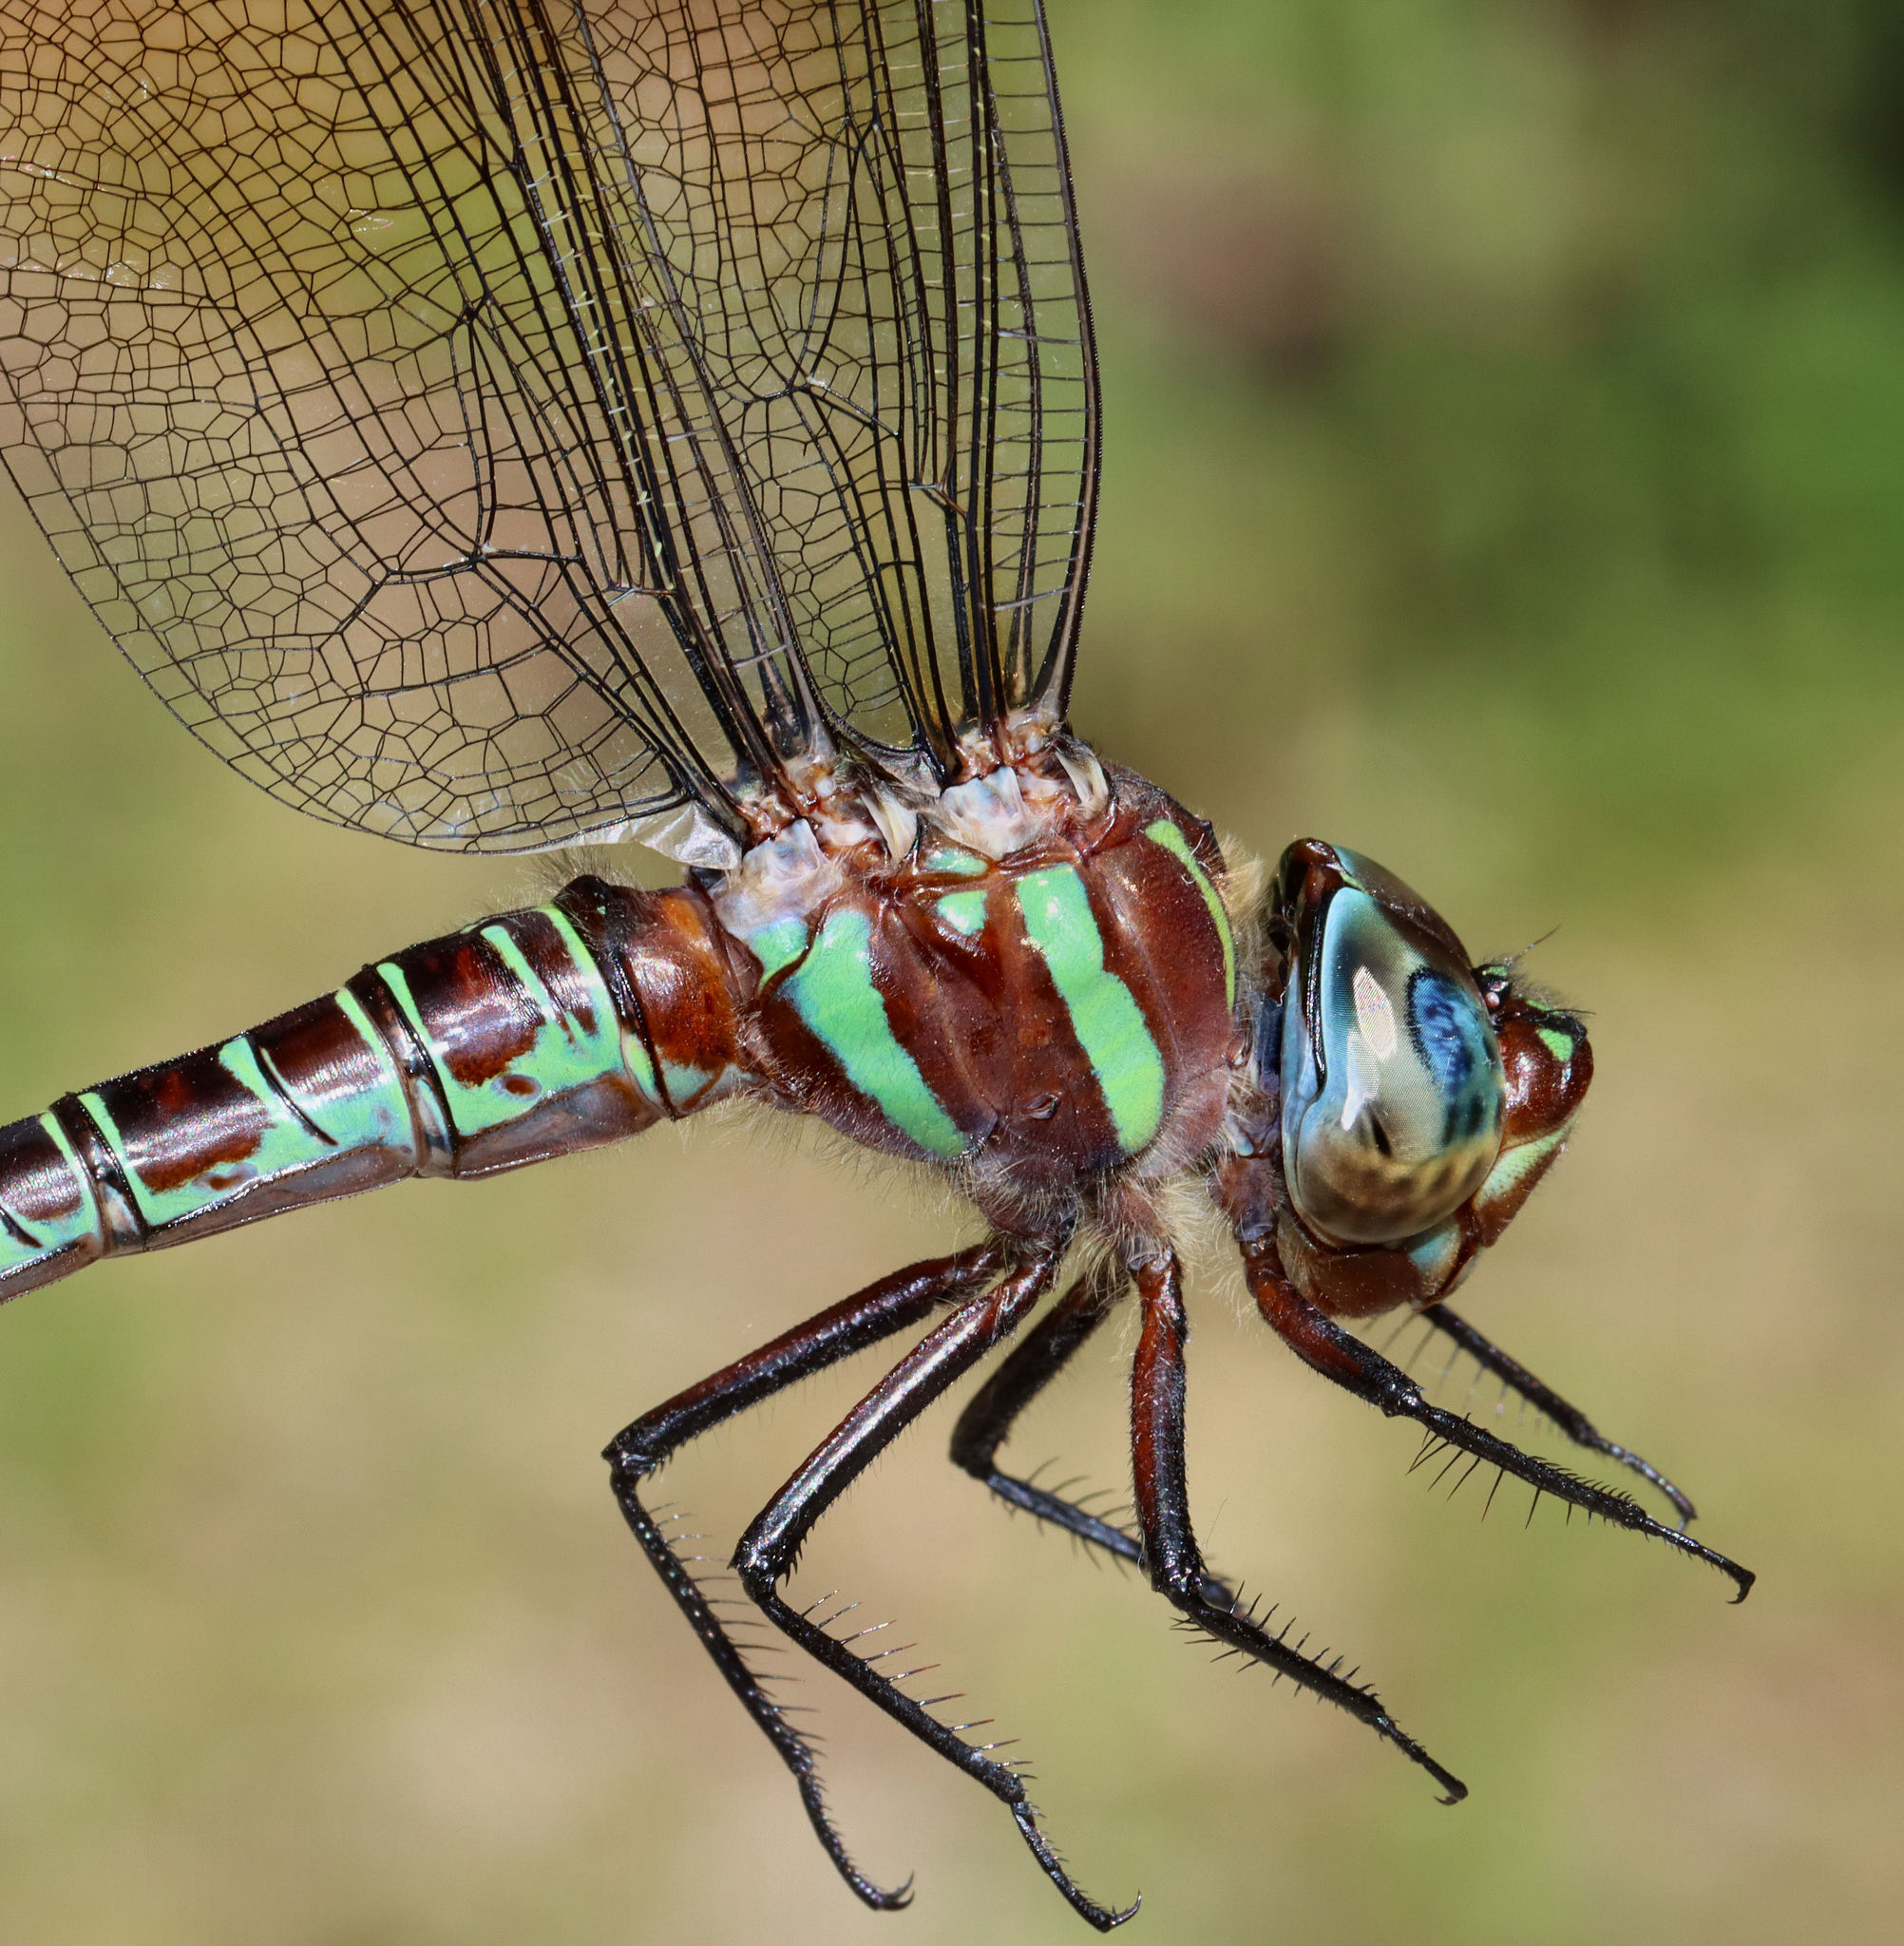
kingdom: Animalia
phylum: Arthropoda
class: Insecta
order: Odonata
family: Aeshnidae
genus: Epiaeschna
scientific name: Epiaeschna heros
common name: Swamp darner
